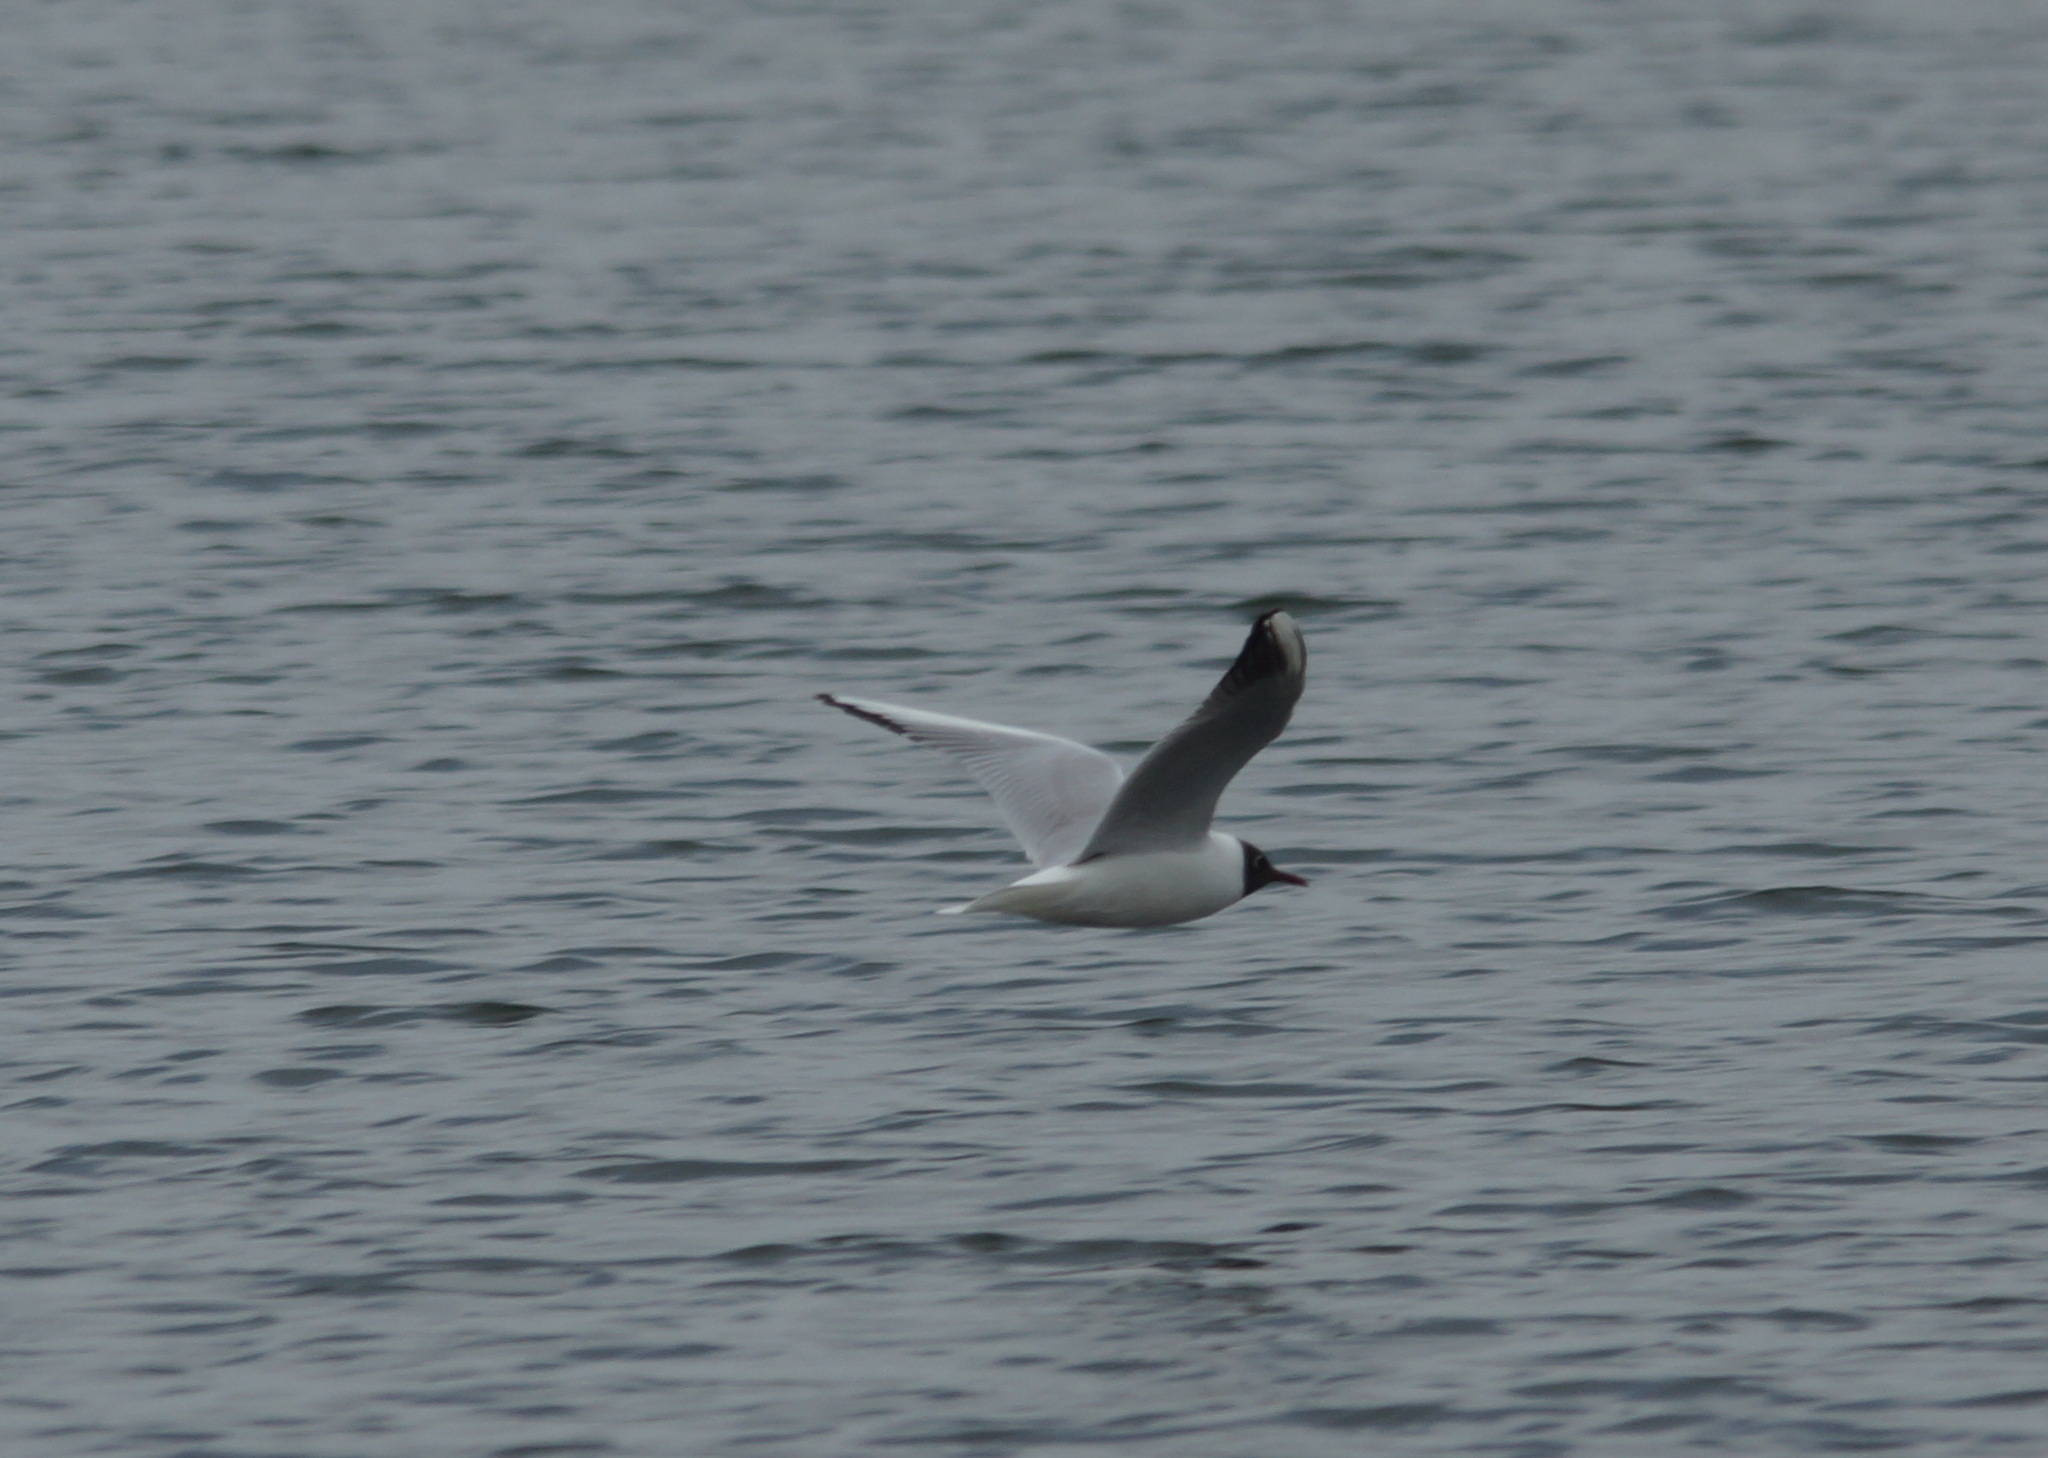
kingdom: Animalia
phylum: Chordata
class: Aves
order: Charadriiformes
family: Laridae
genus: Chroicocephalus
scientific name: Chroicocephalus ridibundus
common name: Black-headed gull
